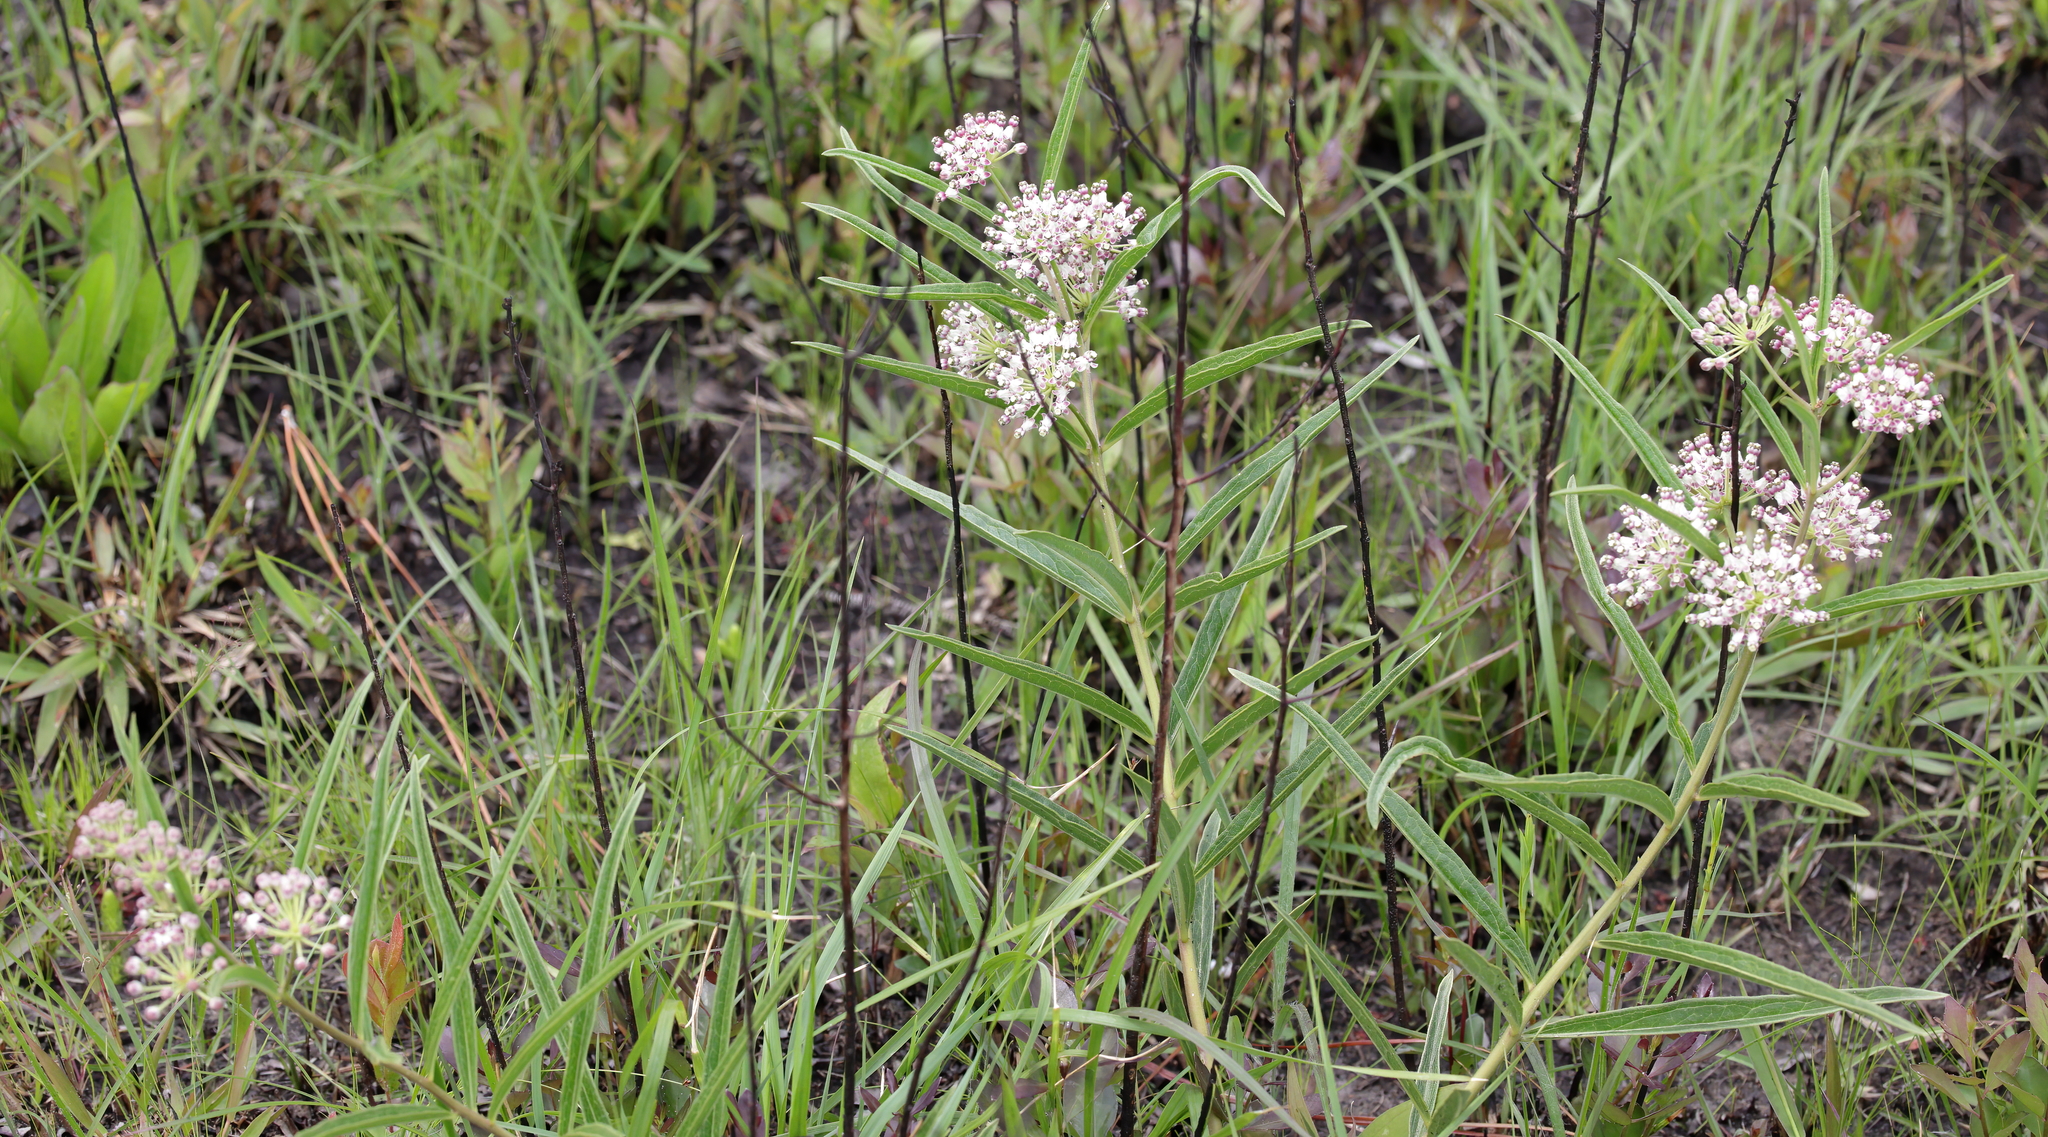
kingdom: Plantae
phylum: Tracheophyta
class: Magnoliopsida
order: Gentianales
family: Apocynaceae
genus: Asclepias
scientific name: Asclepias longifolia
